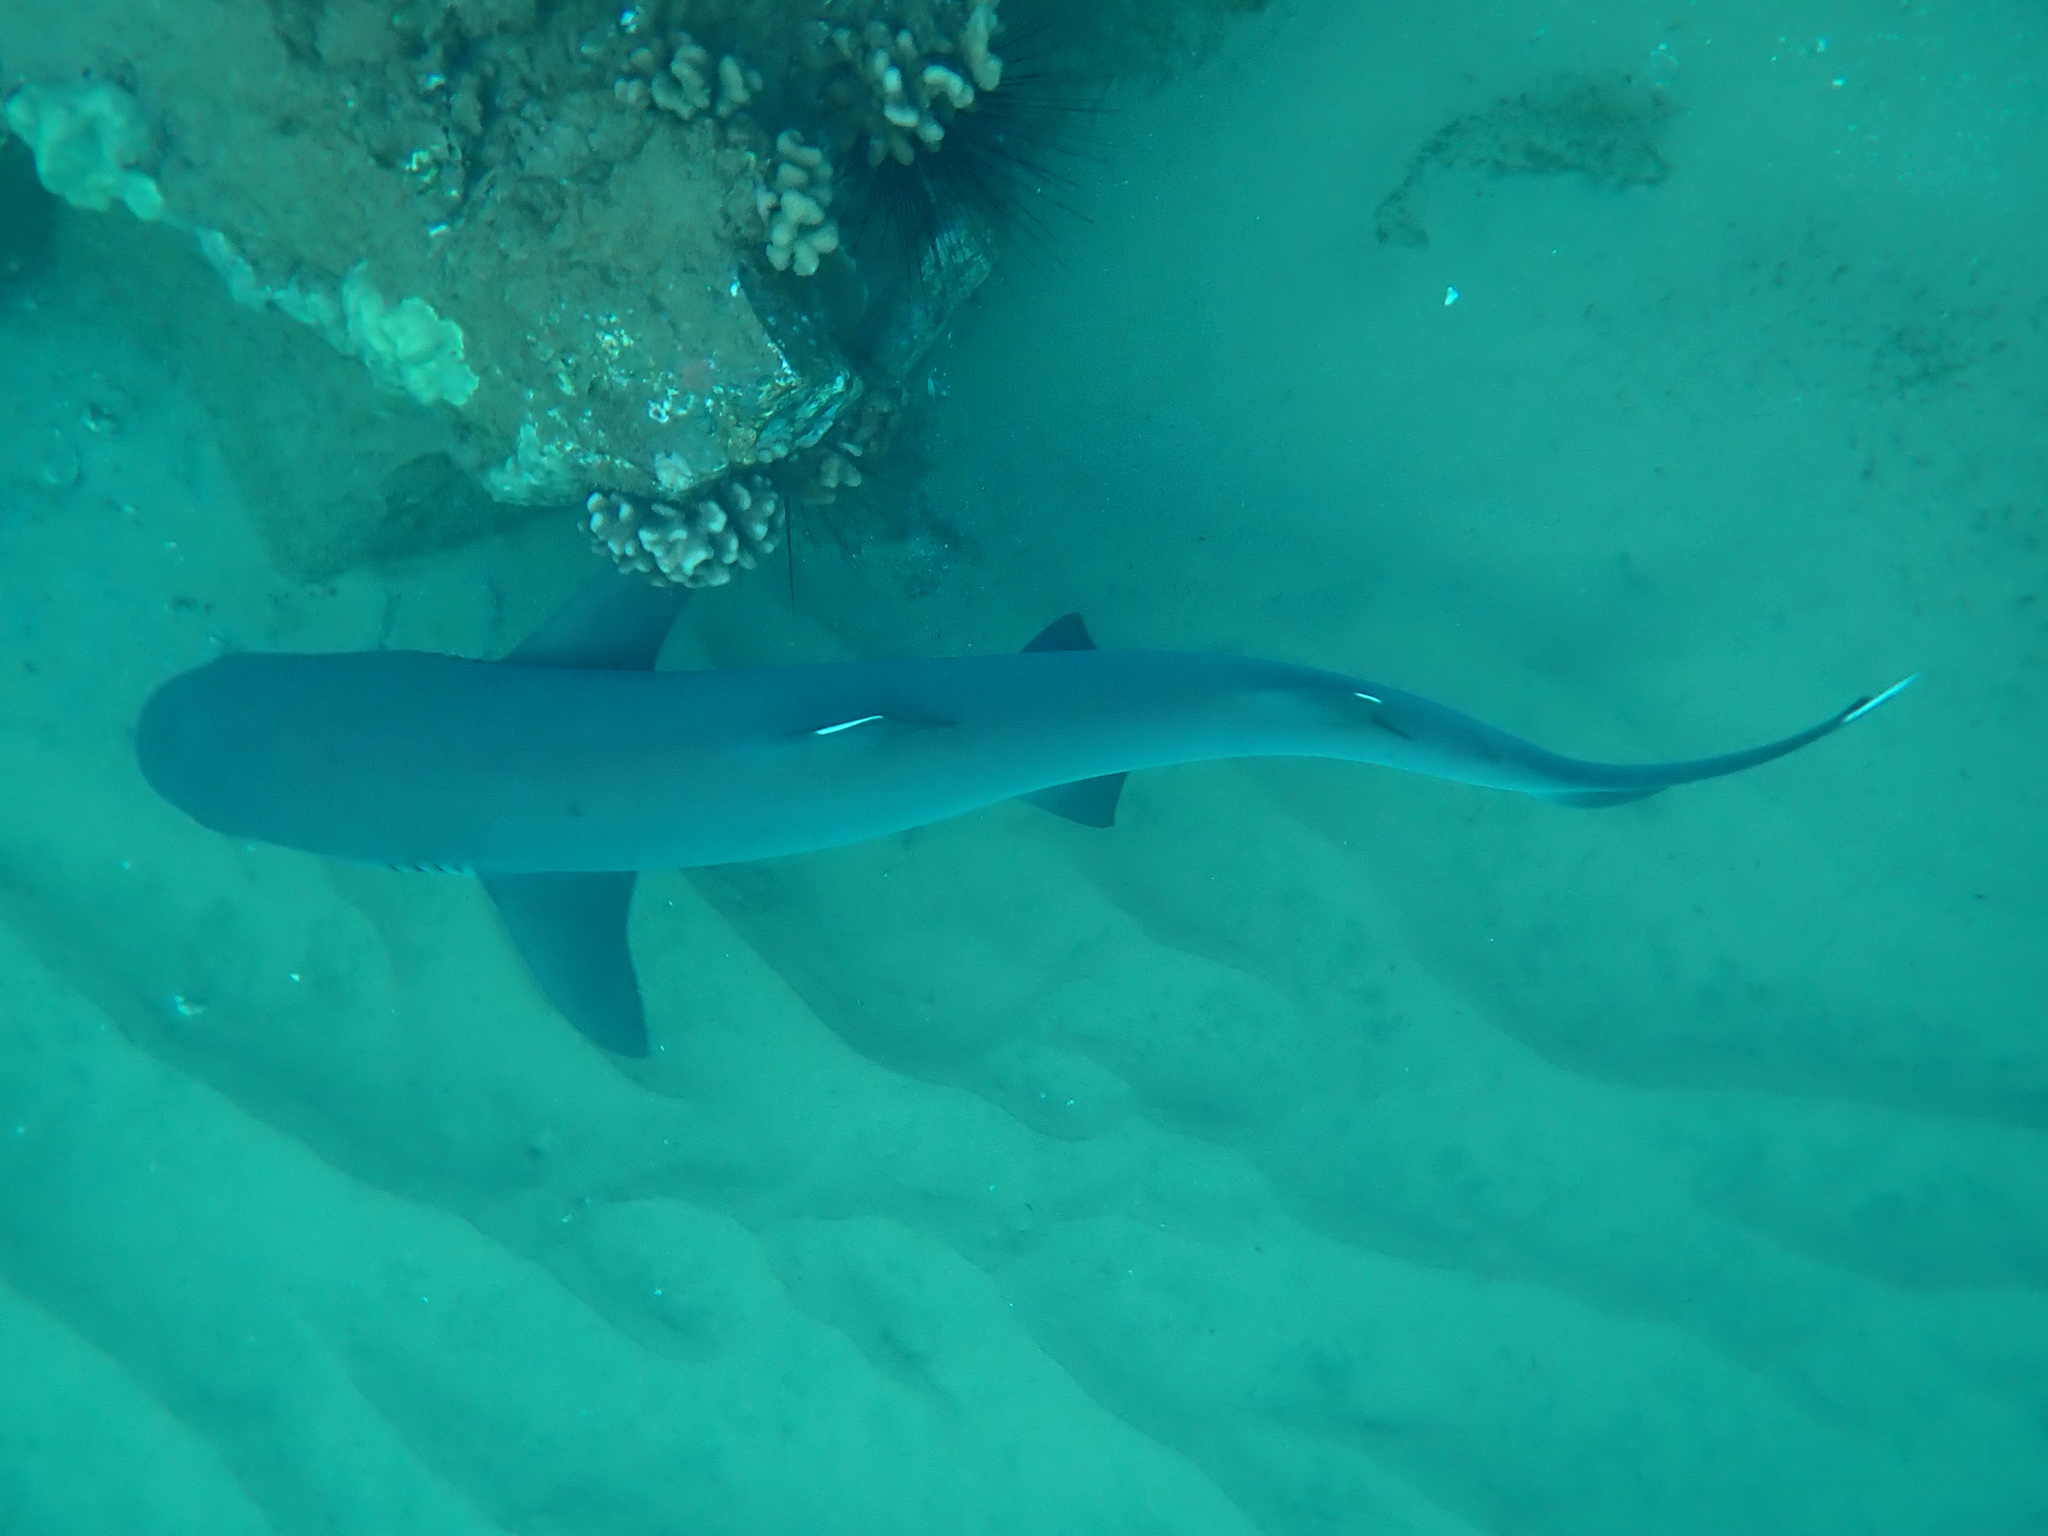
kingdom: Animalia
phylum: Chordata
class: Elasmobranchii
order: Carcharhiniformes
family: Carcharhinidae
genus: Triaenodon
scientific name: Triaenodon obesus
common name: Whitetip reef shark
